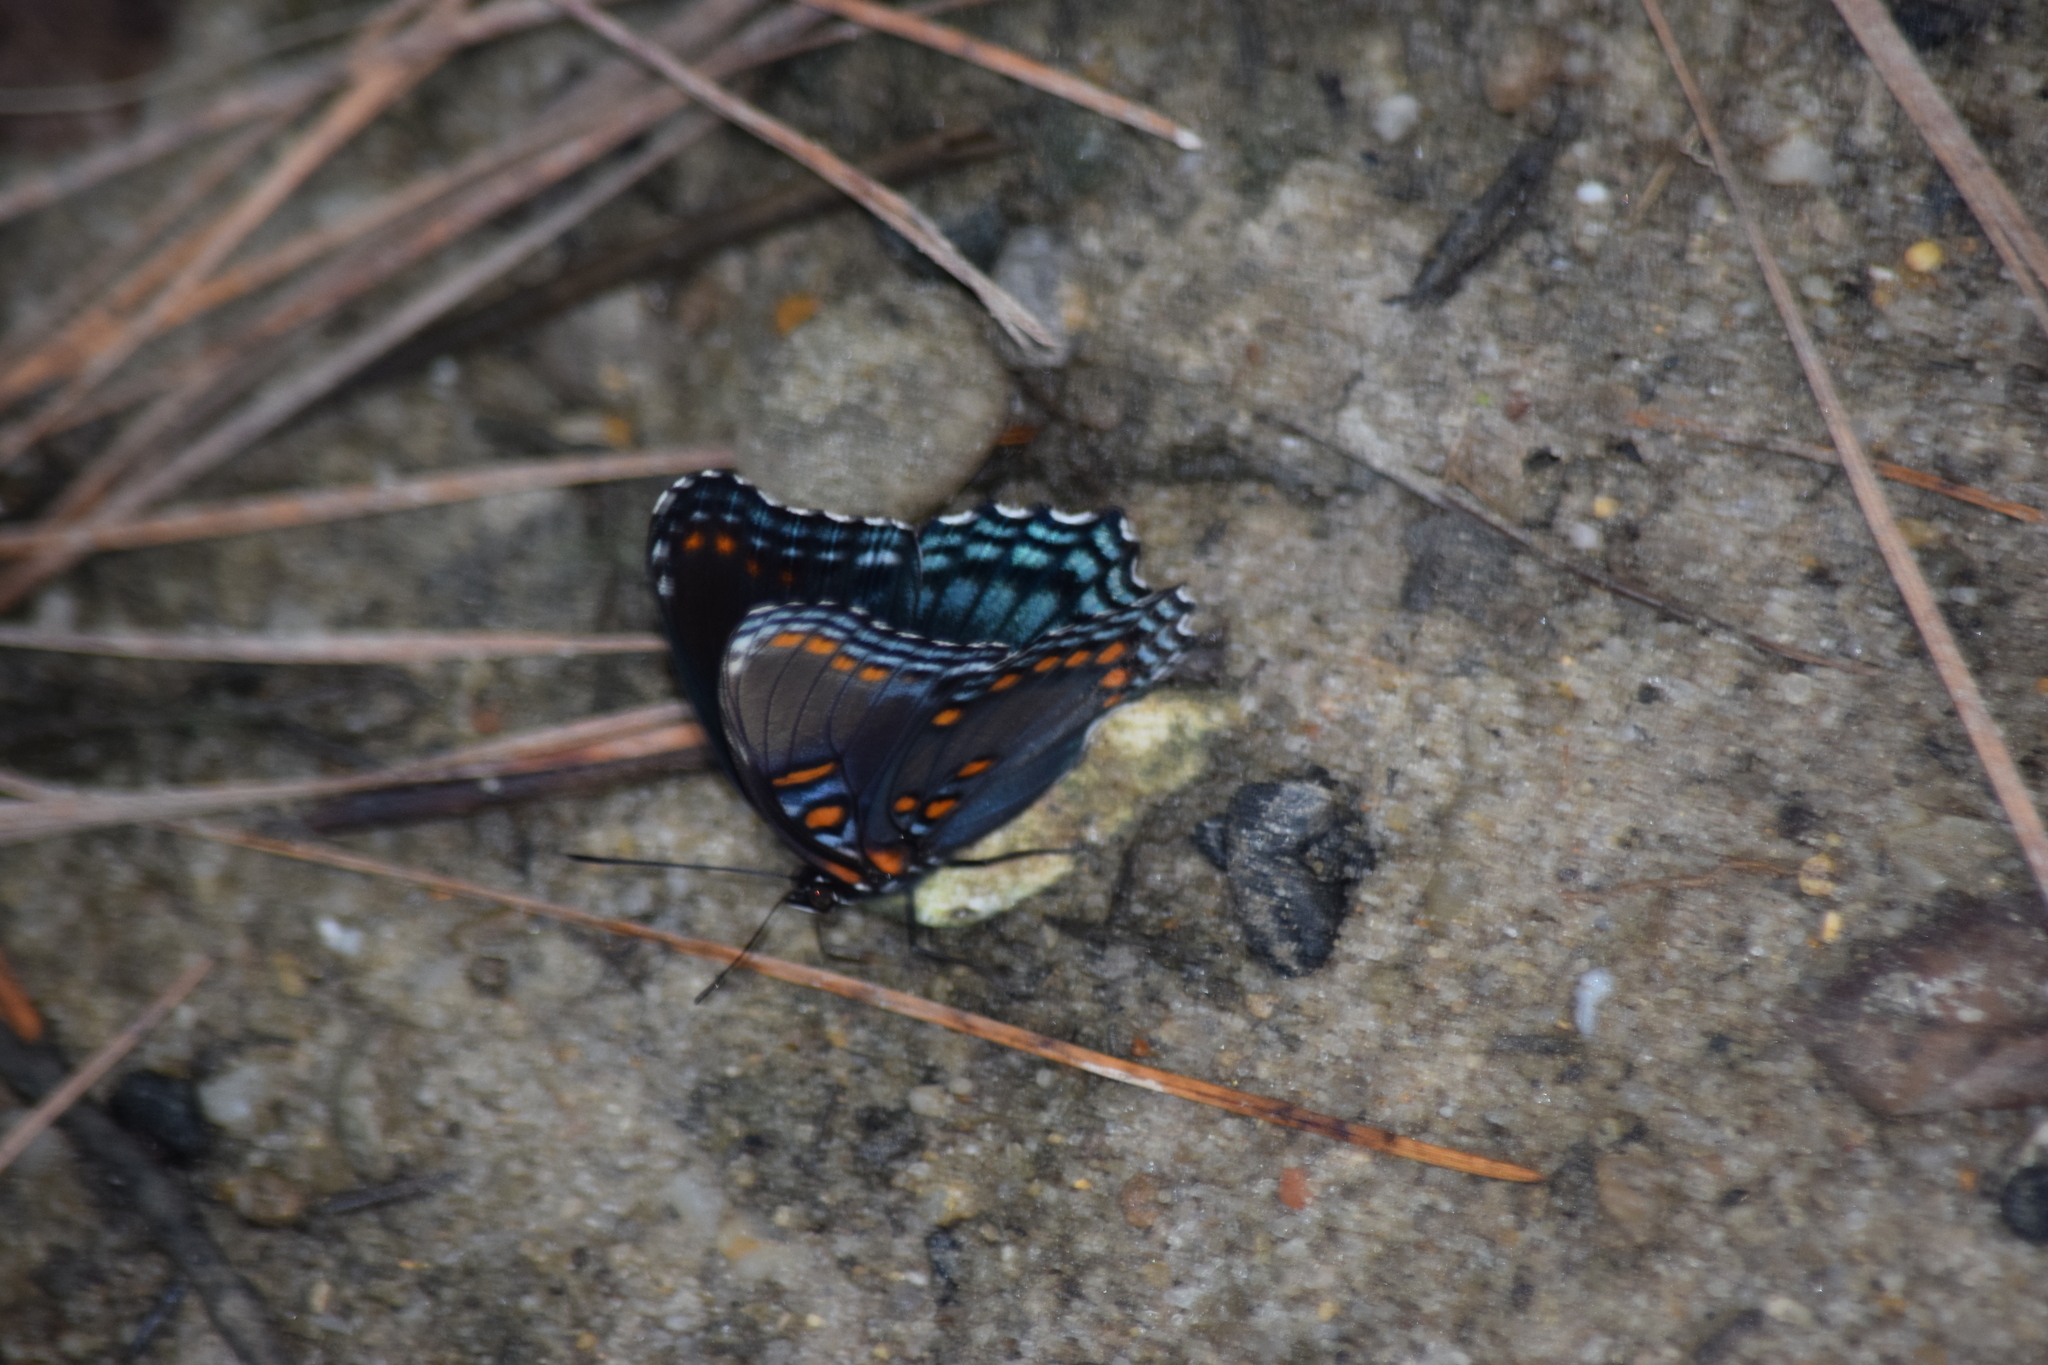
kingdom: Animalia
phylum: Arthropoda
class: Insecta
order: Lepidoptera
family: Nymphalidae
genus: Limenitis
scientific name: Limenitis arthemis
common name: Red-spotted admiral
